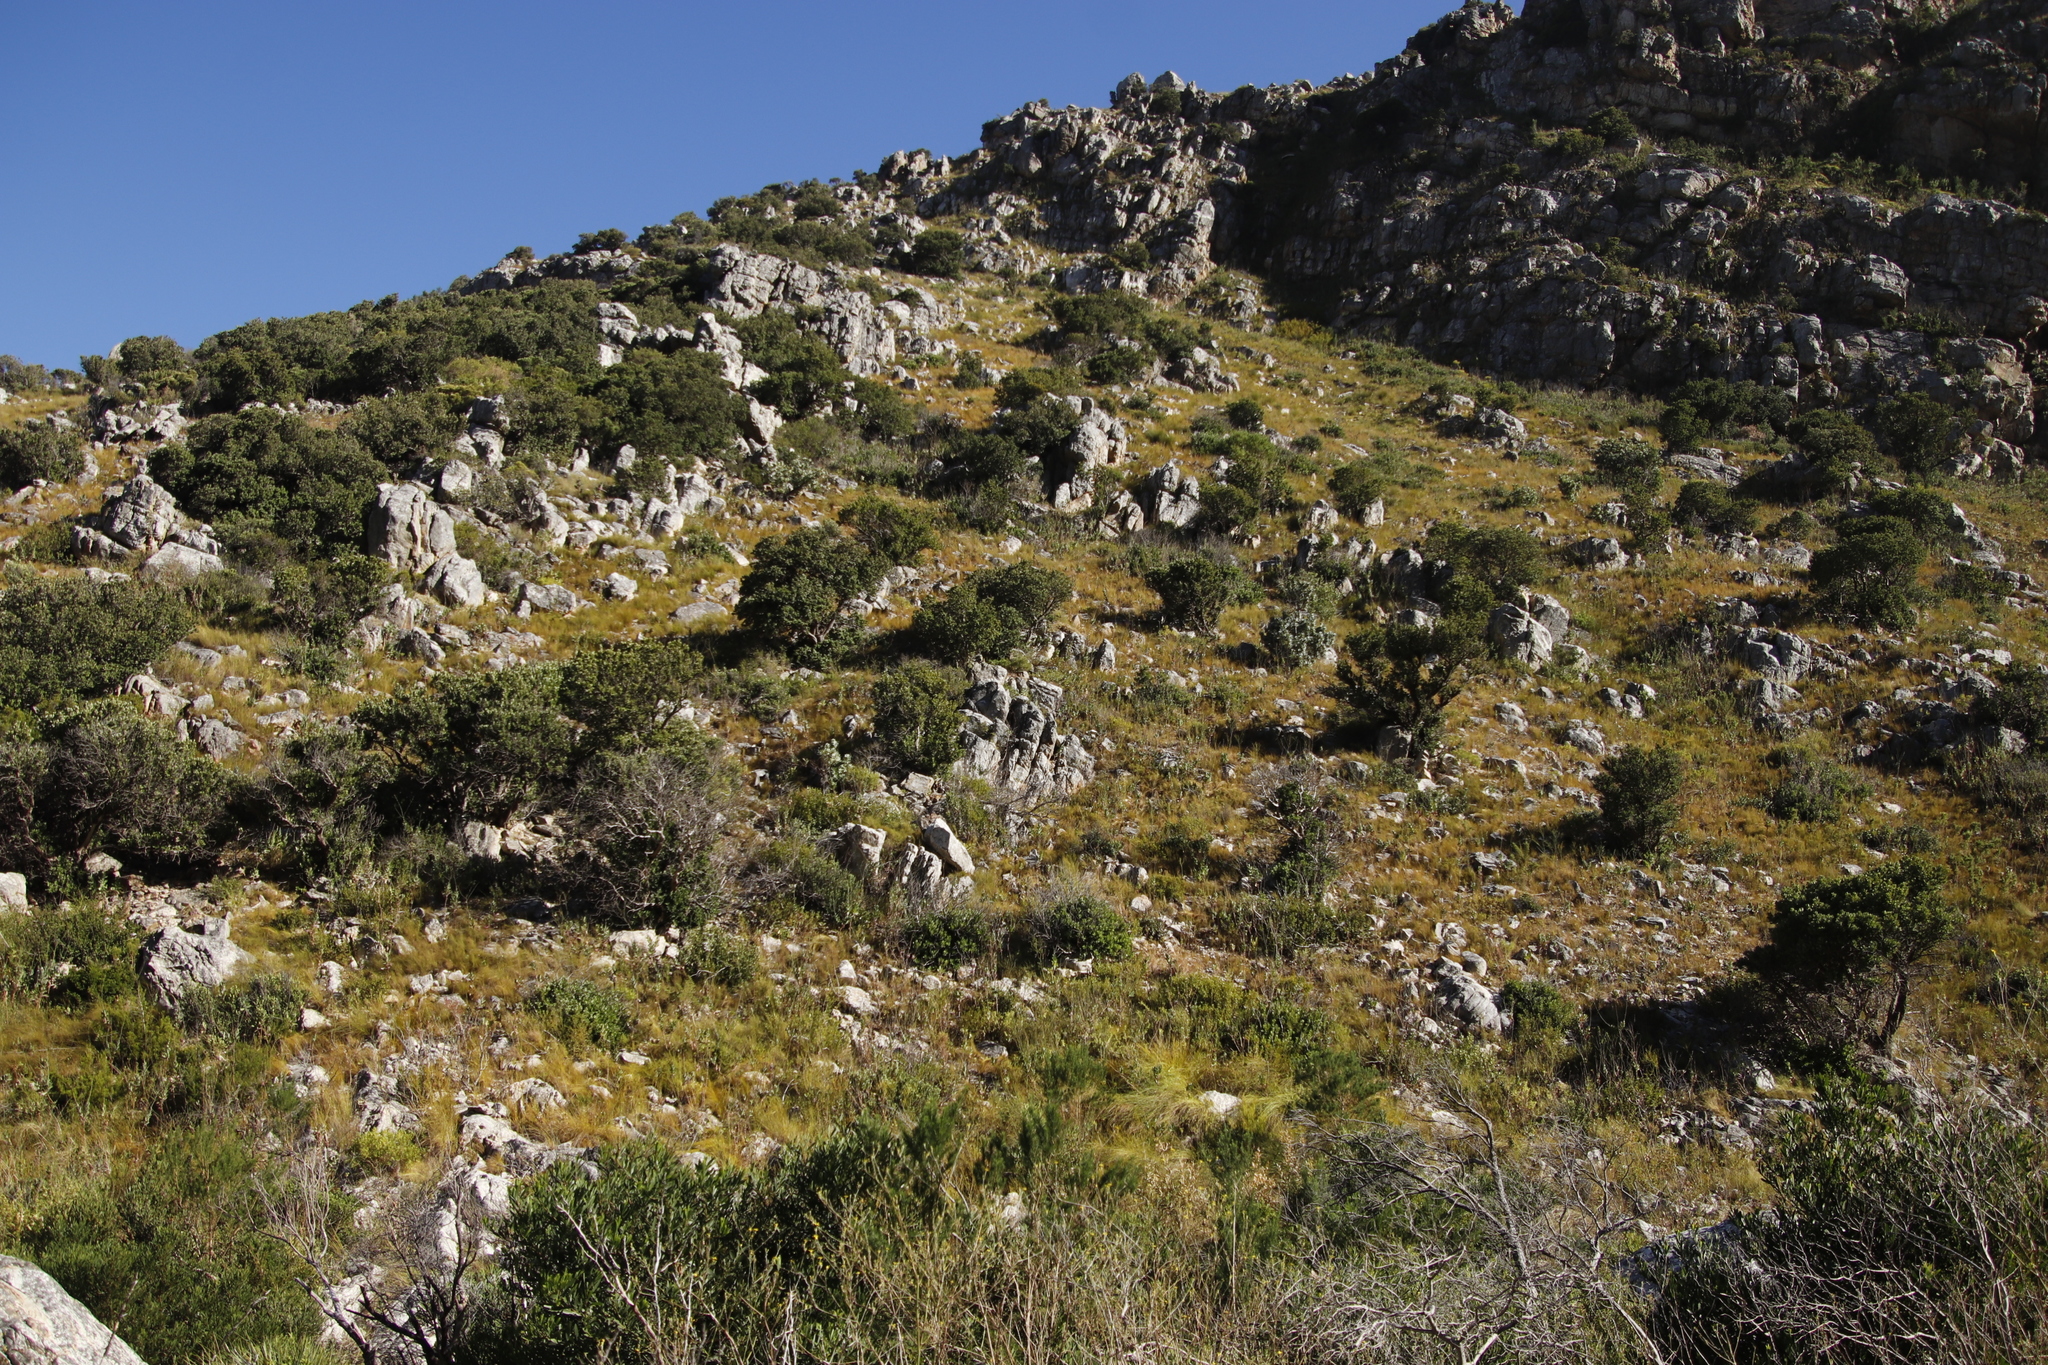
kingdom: Plantae
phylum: Tracheophyta
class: Magnoliopsida
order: Sapindales
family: Anacardiaceae
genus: Heeria
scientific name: Heeria argentea
